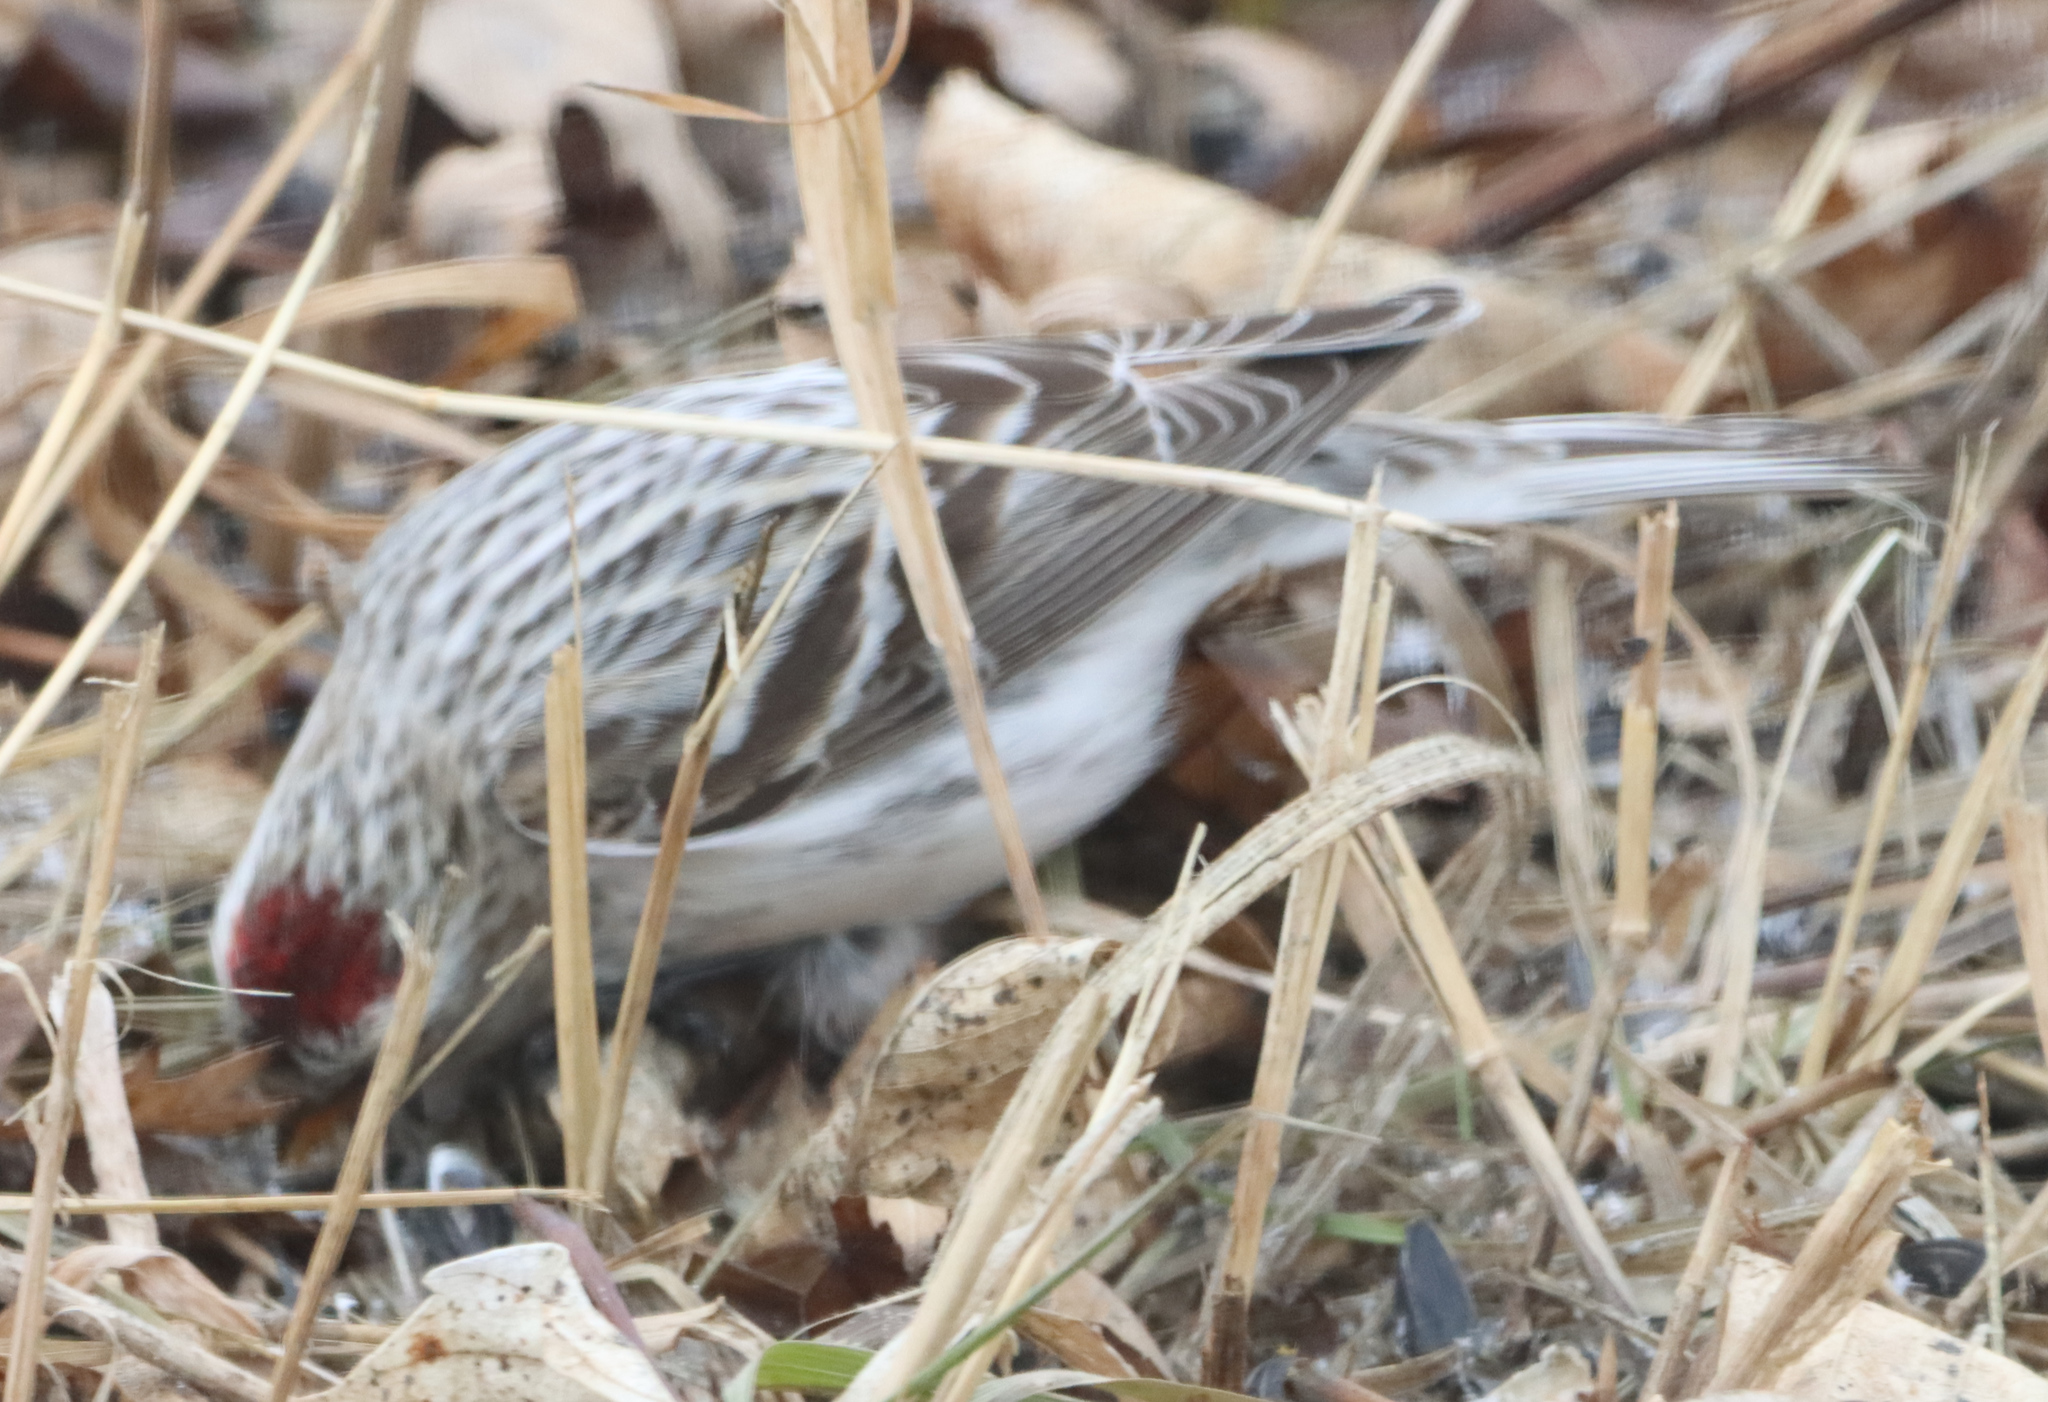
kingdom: Animalia
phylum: Chordata
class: Aves
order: Passeriformes
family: Fringillidae
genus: Acanthis
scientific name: Acanthis hornemanni
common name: Arctic redpoll
